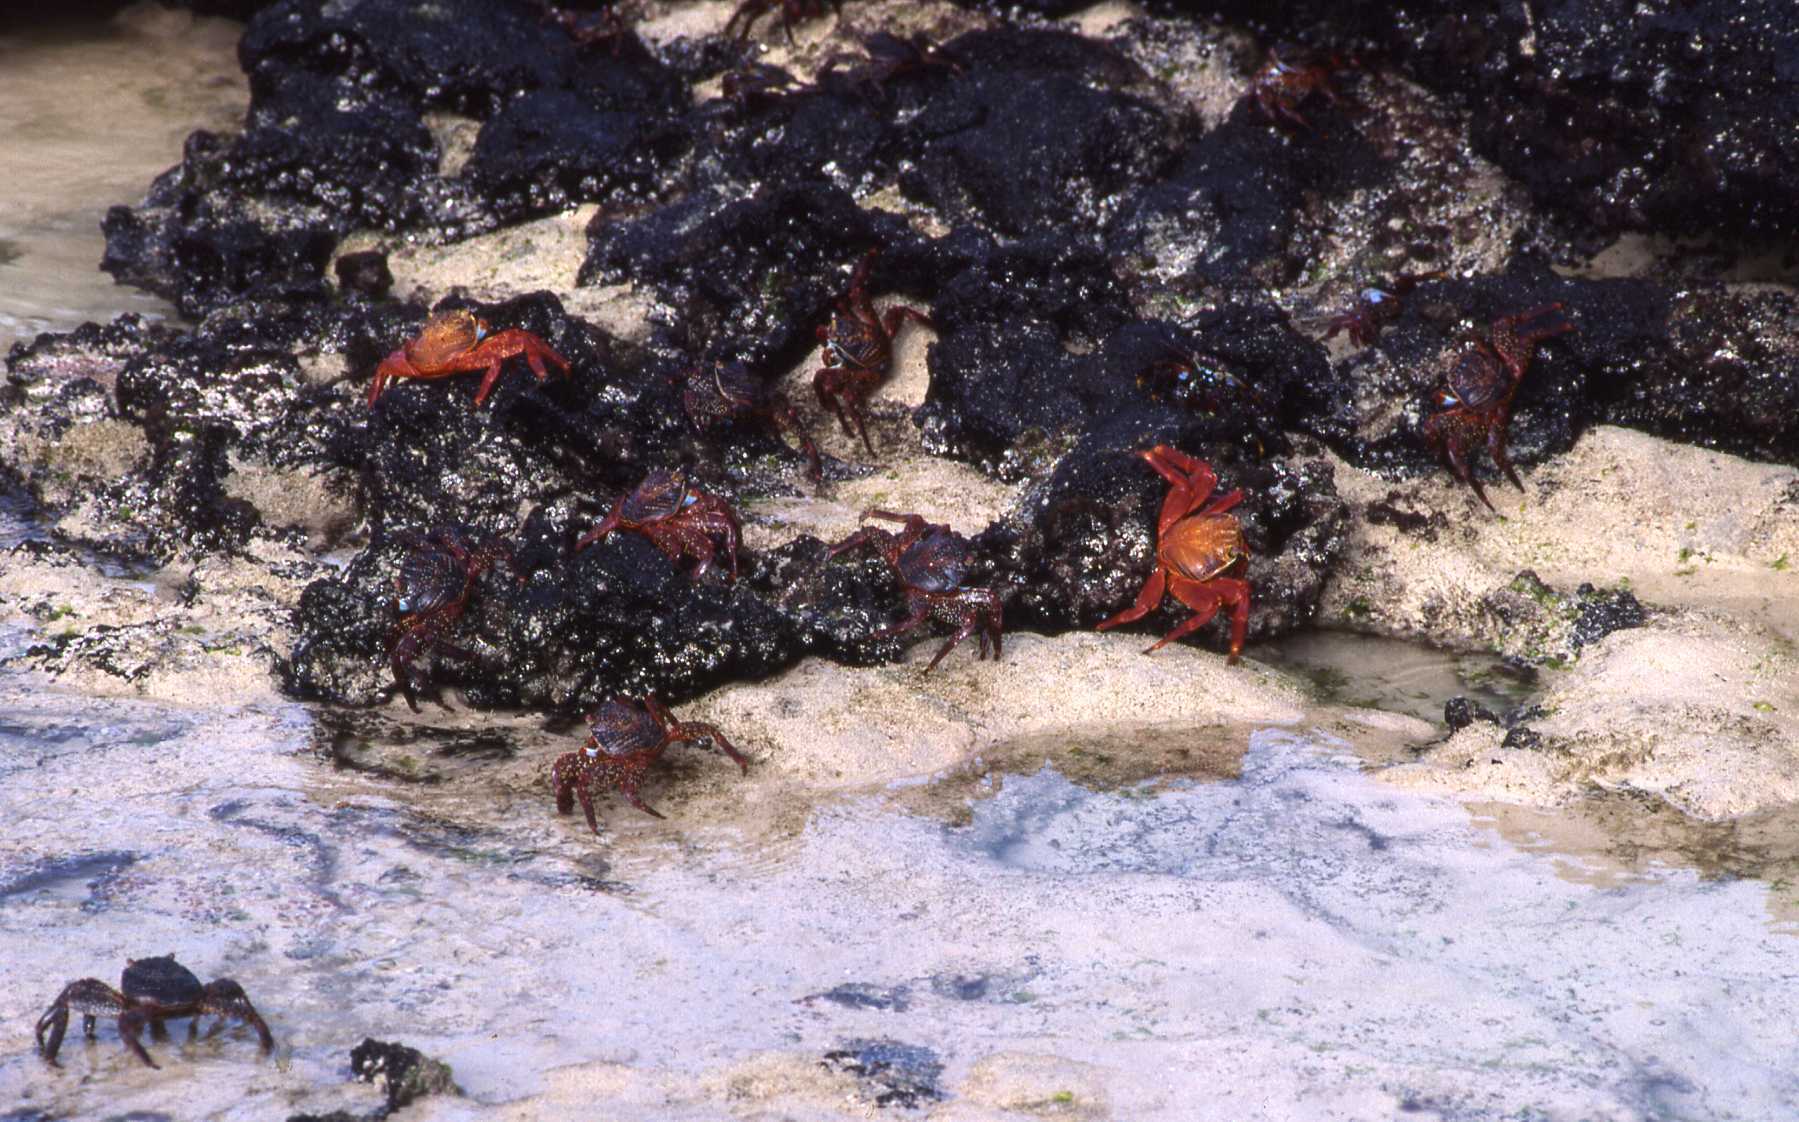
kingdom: Animalia
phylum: Arthropoda
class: Malacostraca
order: Decapoda
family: Grapsidae
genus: Grapsus
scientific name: Grapsus grapsus
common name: Sally lightfoot
